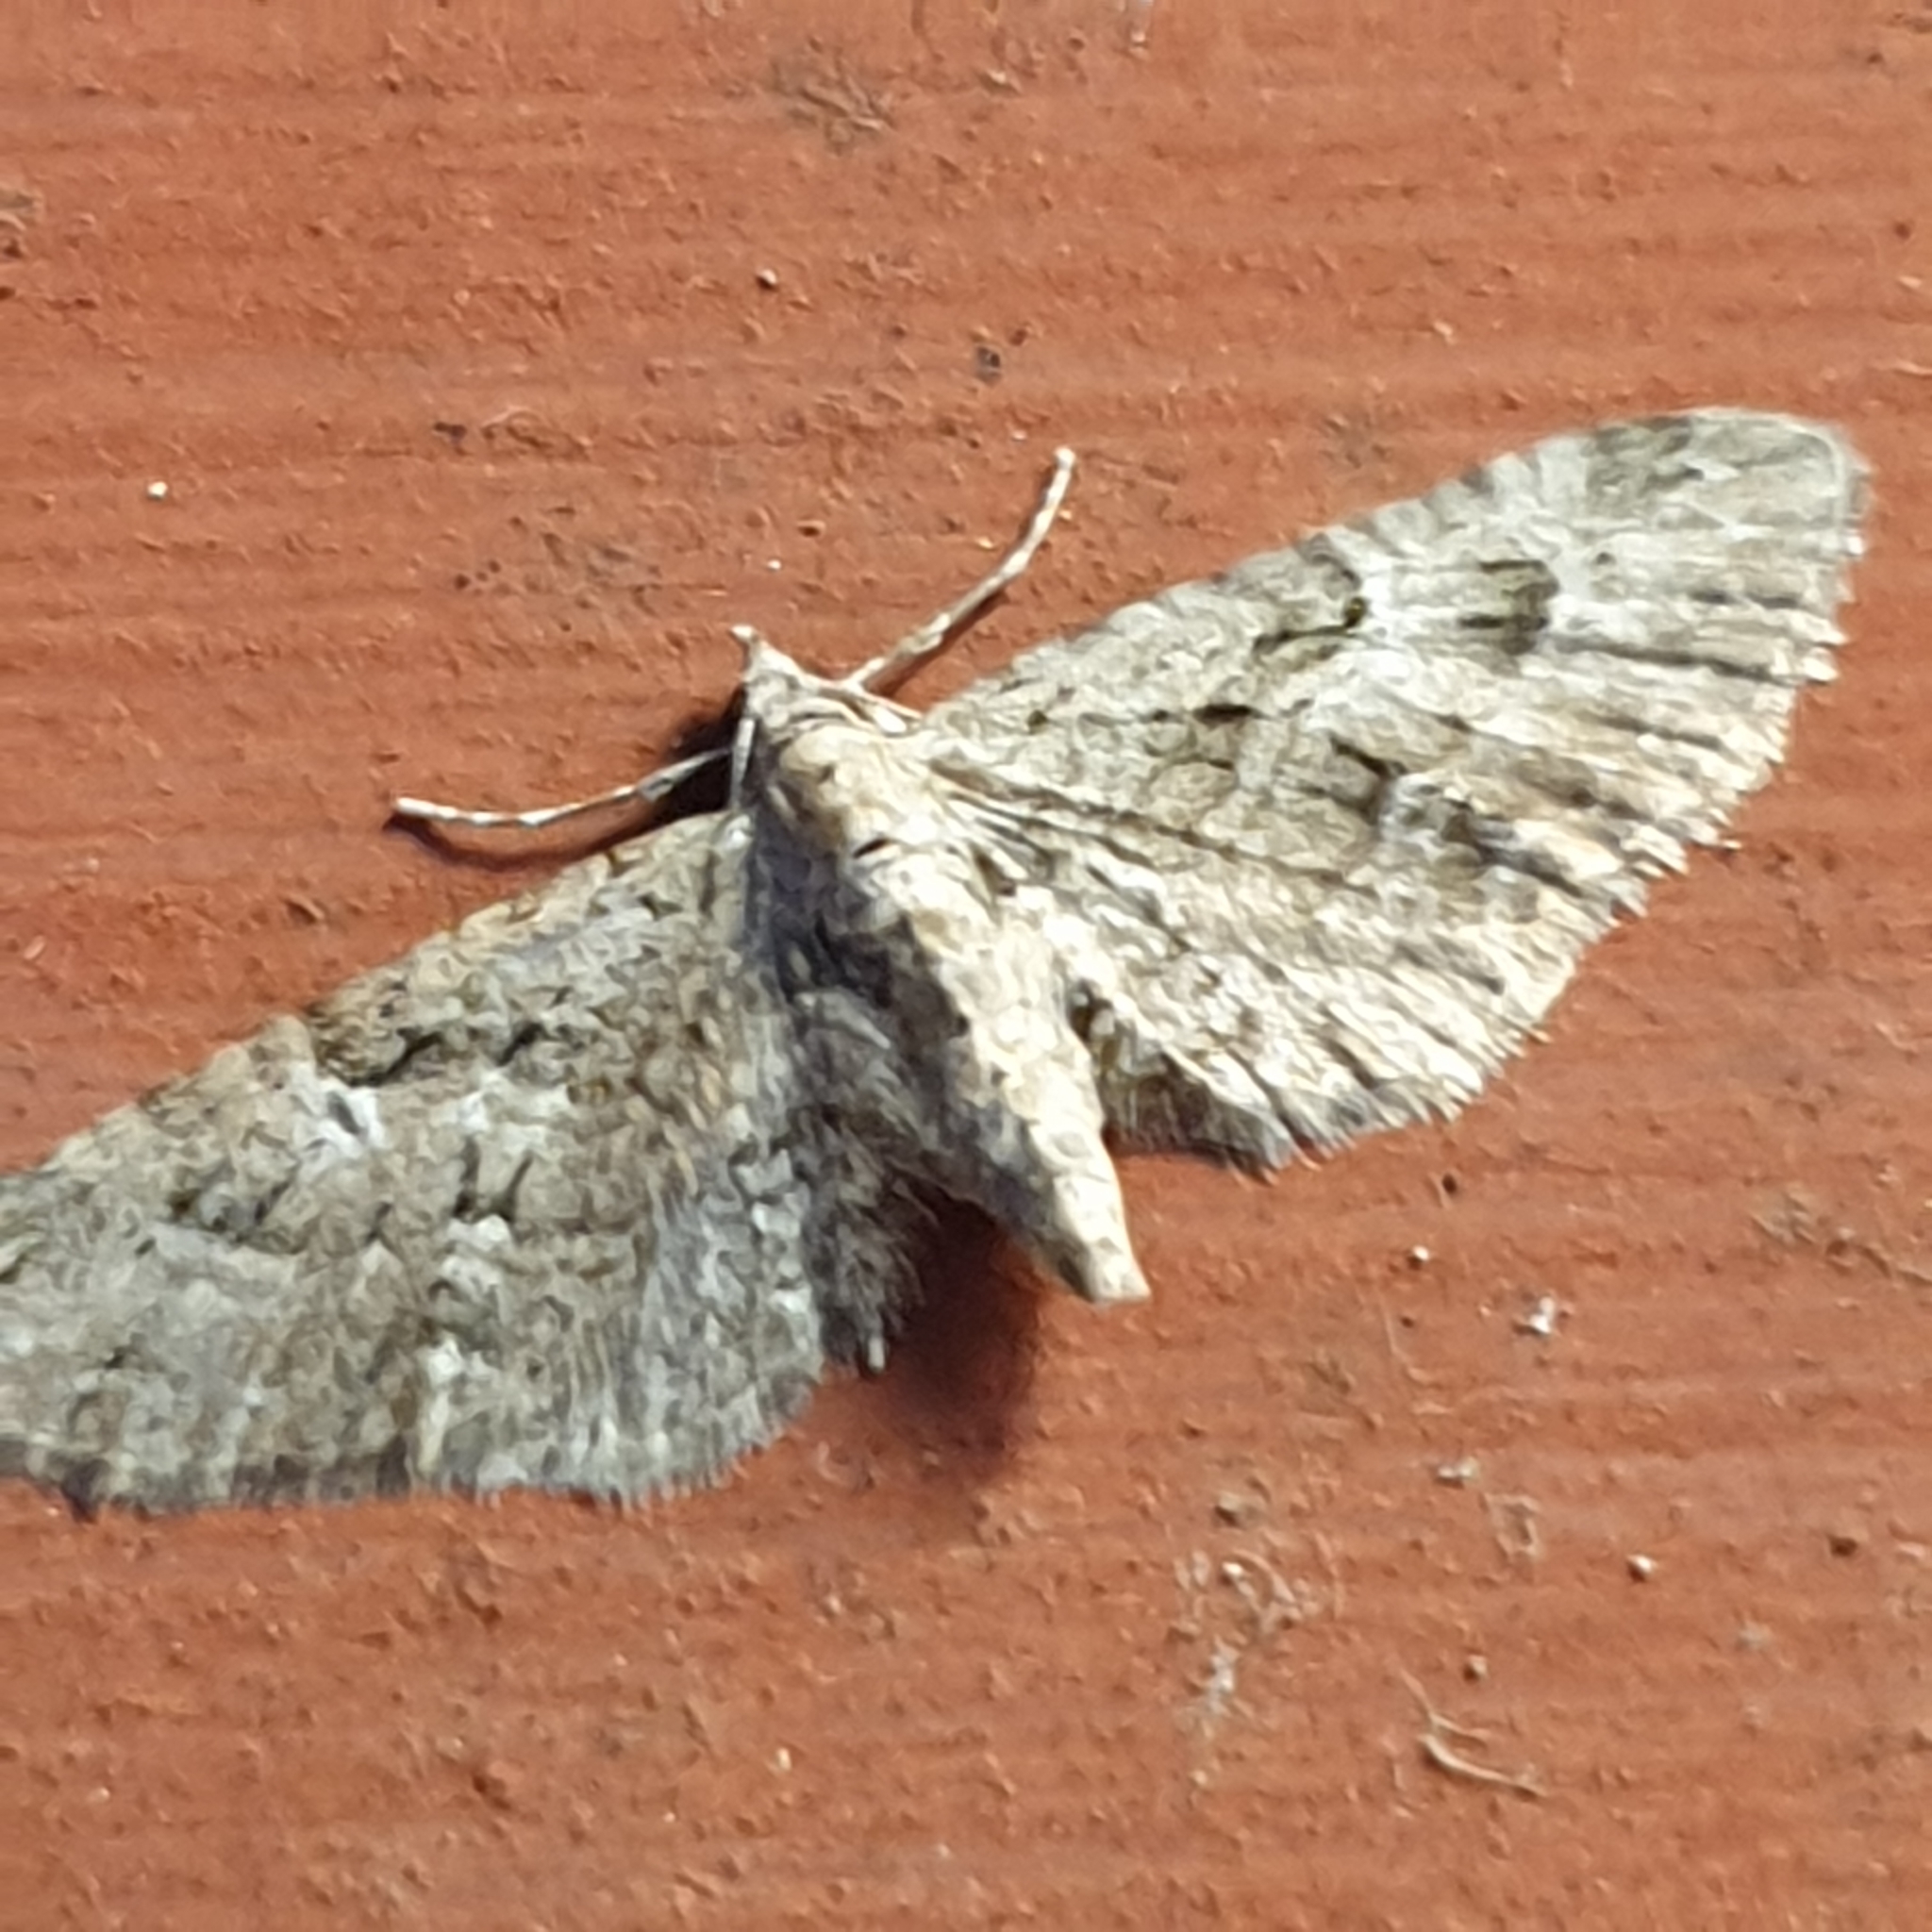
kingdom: Animalia
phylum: Arthropoda
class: Insecta
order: Lepidoptera
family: Geometridae
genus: Eupithecia
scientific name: Eupithecia pusillata
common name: Juniper pug
